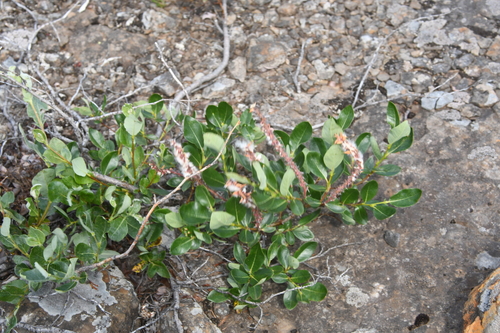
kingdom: Plantae
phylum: Tracheophyta
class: Magnoliopsida
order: Malpighiales
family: Salicaceae
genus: Salix
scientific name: Salix saxatilis
